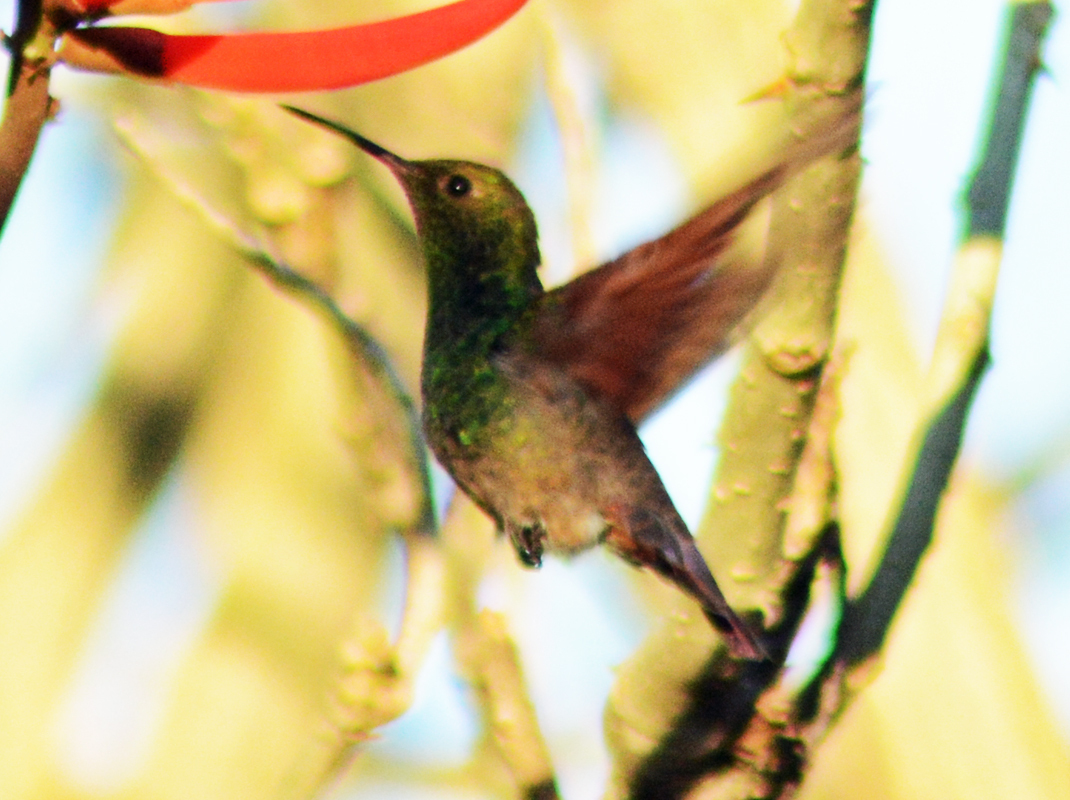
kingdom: Animalia
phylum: Chordata
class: Aves
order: Apodiformes
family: Trochilidae
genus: Saucerottia
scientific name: Saucerottia beryllina
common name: Berylline hummingbird
